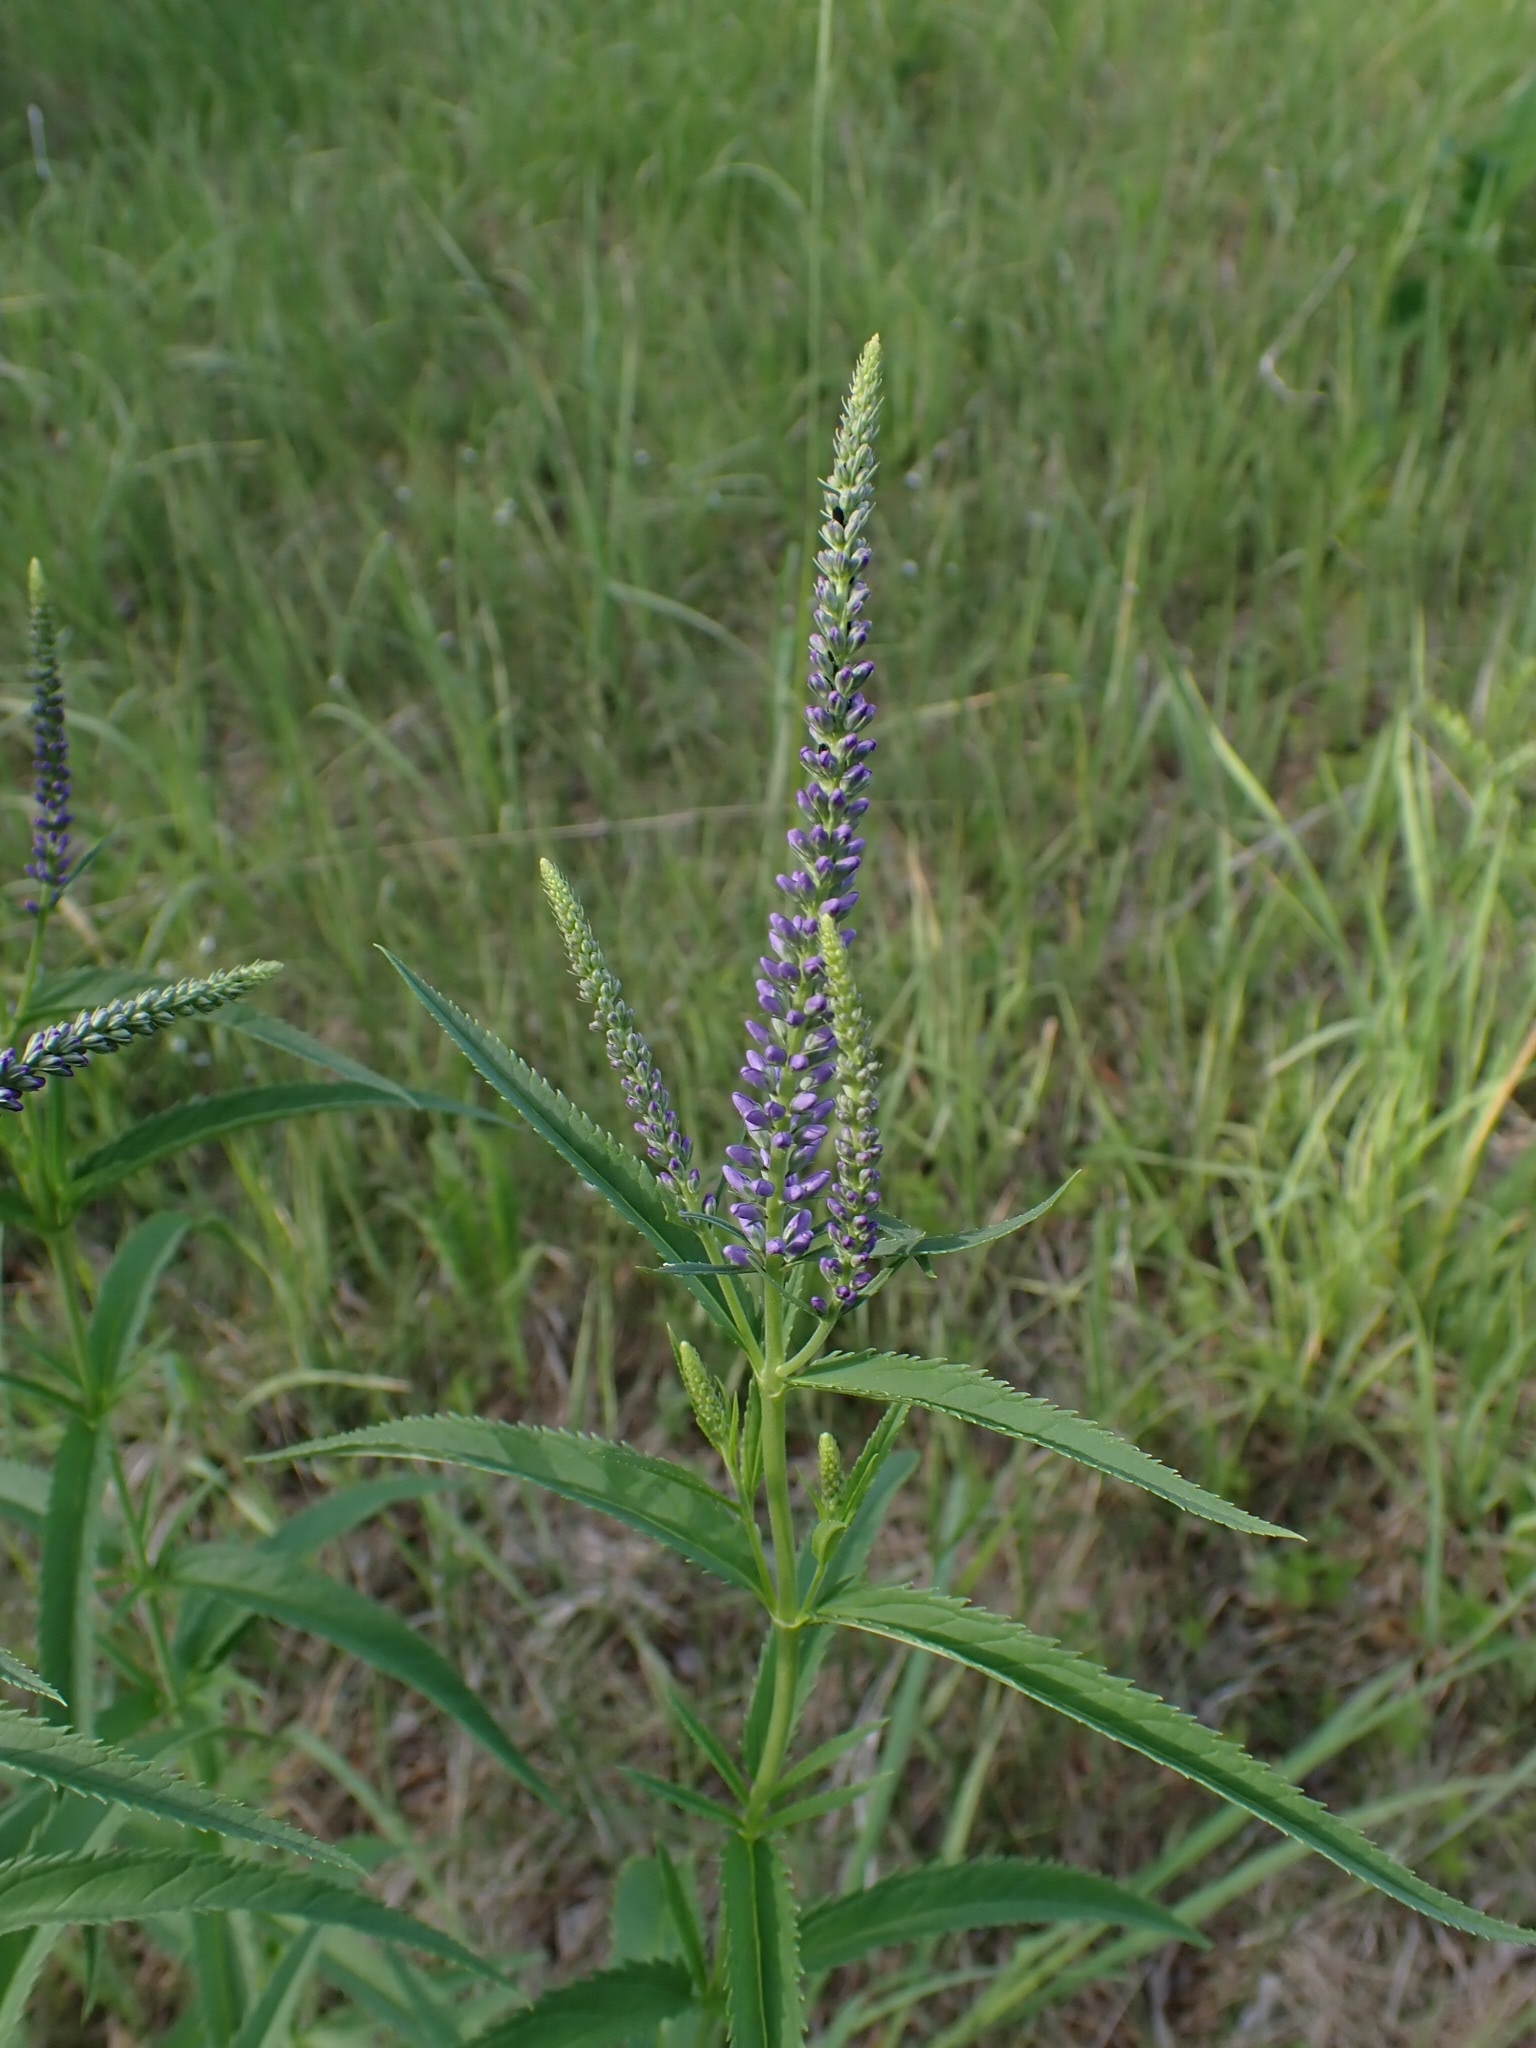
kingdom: Plantae
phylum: Tracheophyta
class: Magnoliopsida
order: Lamiales
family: Plantaginaceae
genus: Veronica
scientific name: Veronica longifolia
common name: Garden speedwell
